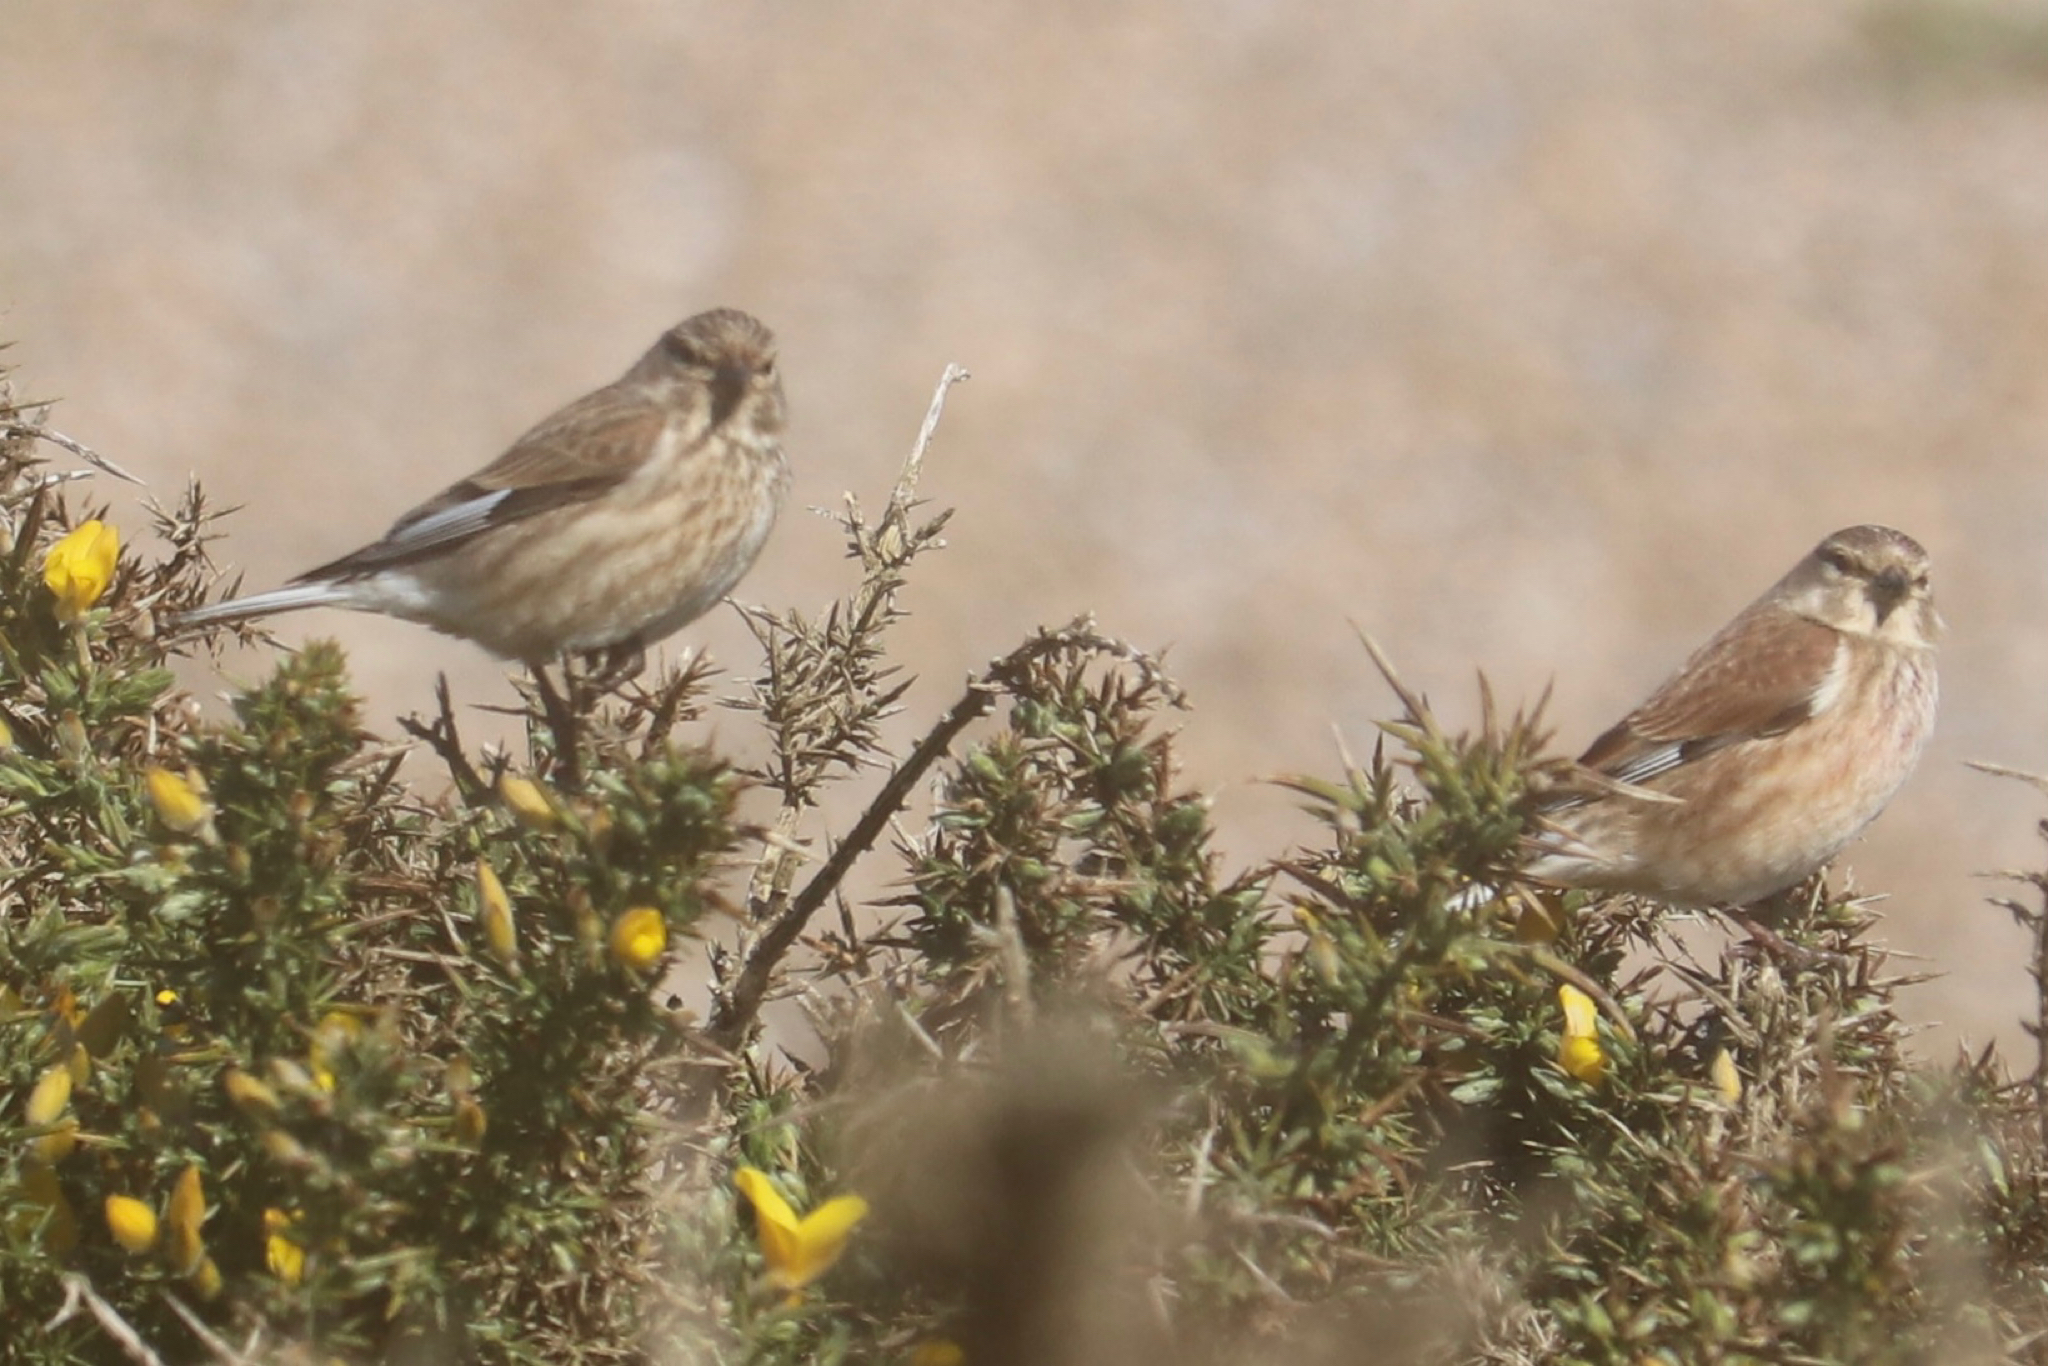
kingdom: Animalia
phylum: Chordata
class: Aves
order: Passeriformes
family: Fringillidae
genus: Linaria
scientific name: Linaria cannabina
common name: Common linnet
